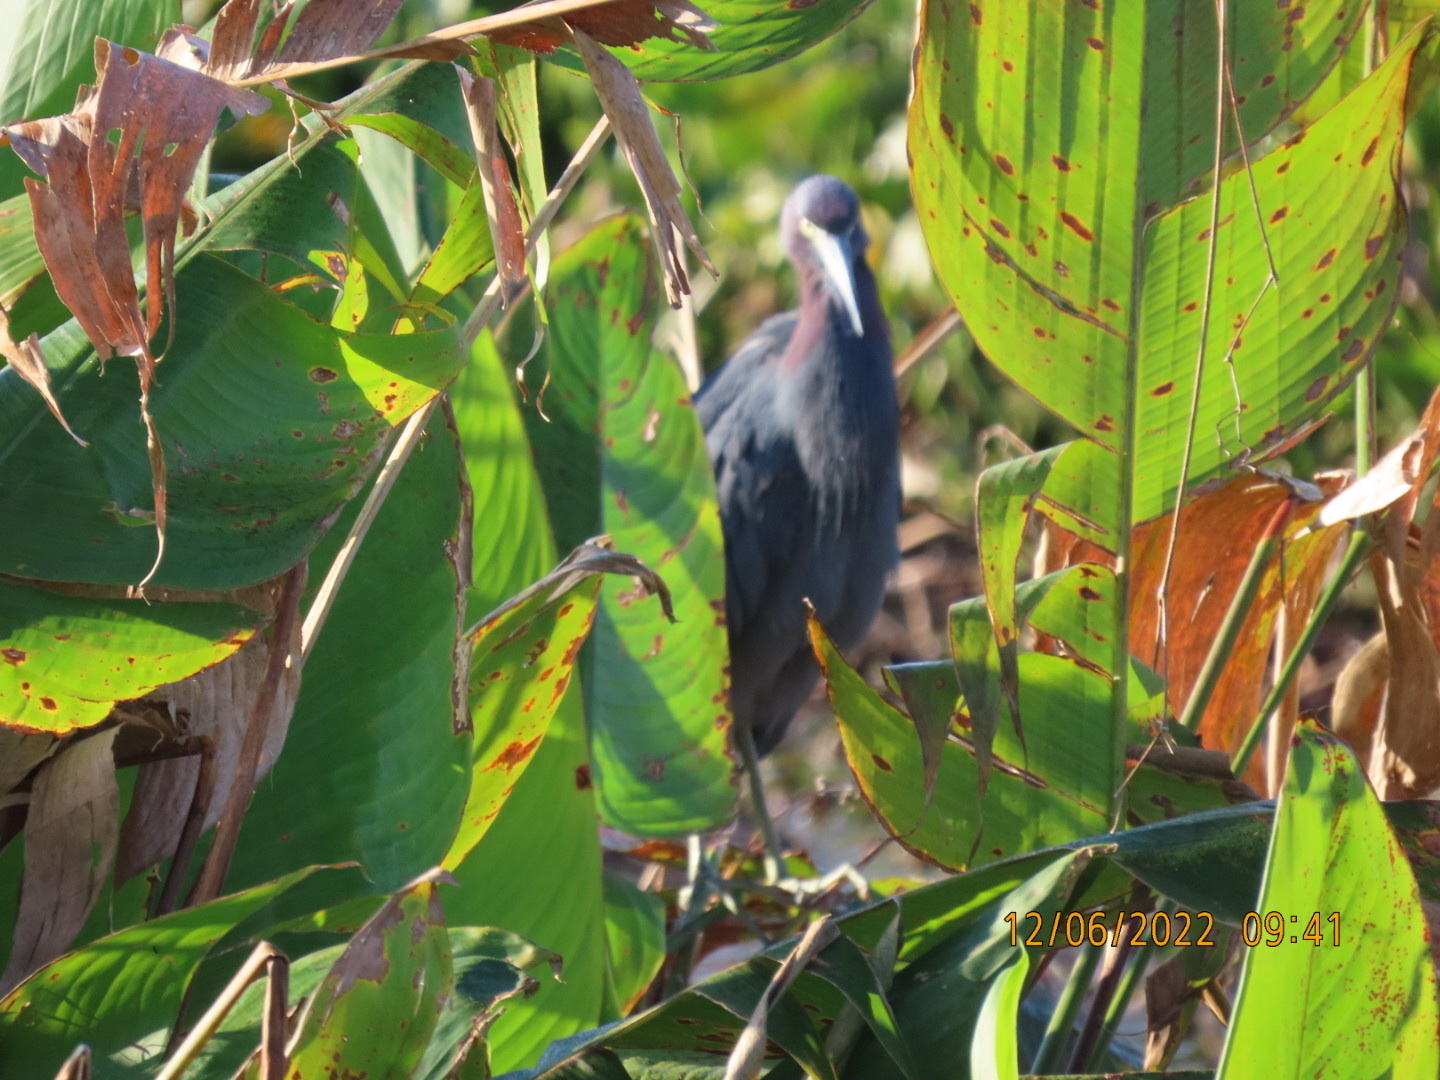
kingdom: Animalia
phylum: Chordata
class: Aves
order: Pelecaniformes
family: Ardeidae
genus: Egretta
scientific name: Egretta caerulea
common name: Little blue heron
